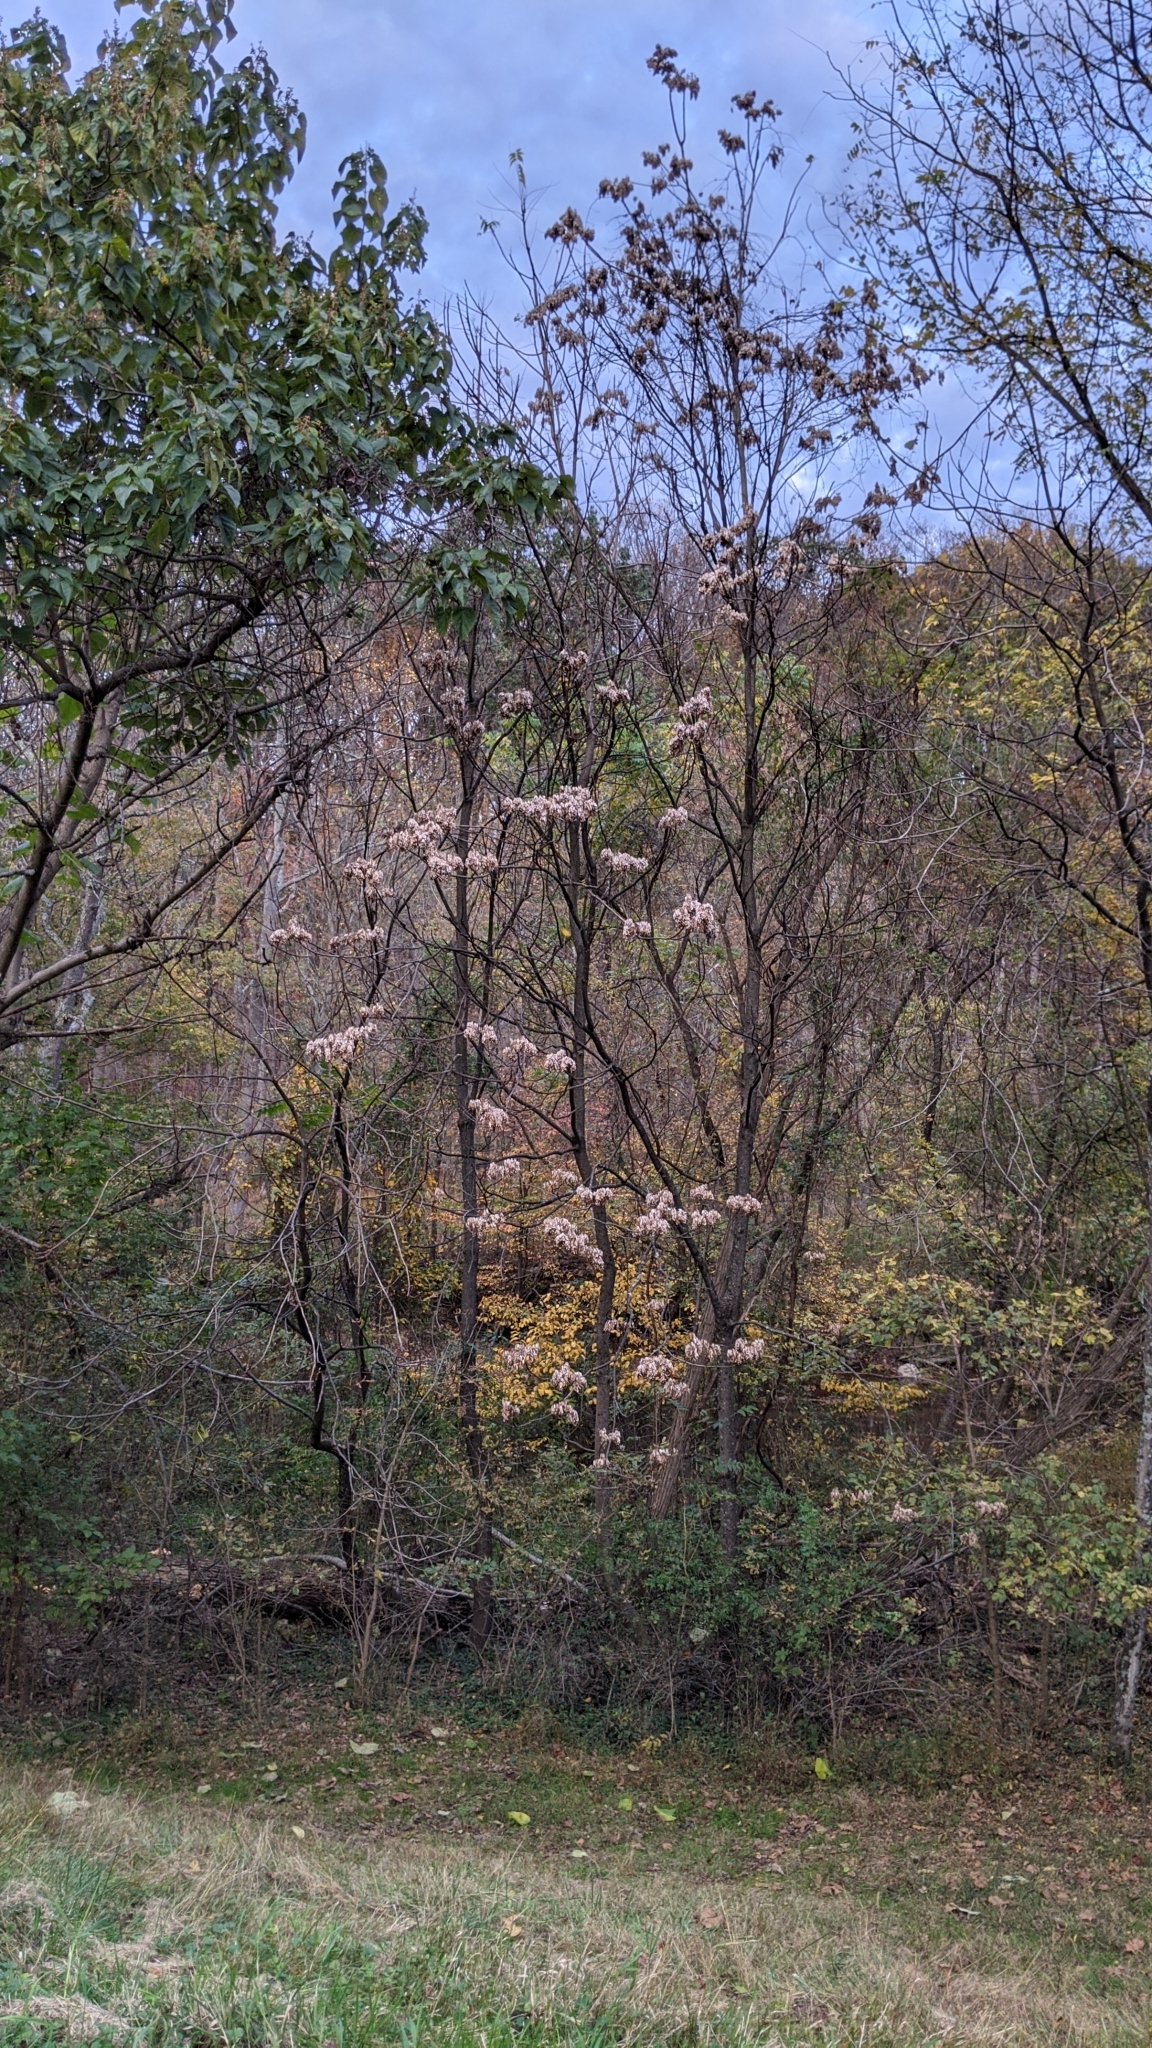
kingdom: Plantae
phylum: Tracheophyta
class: Magnoliopsida
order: Sapindales
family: Sapindaceae
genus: Acer
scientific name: Acer negundo
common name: Ashleaf maple
